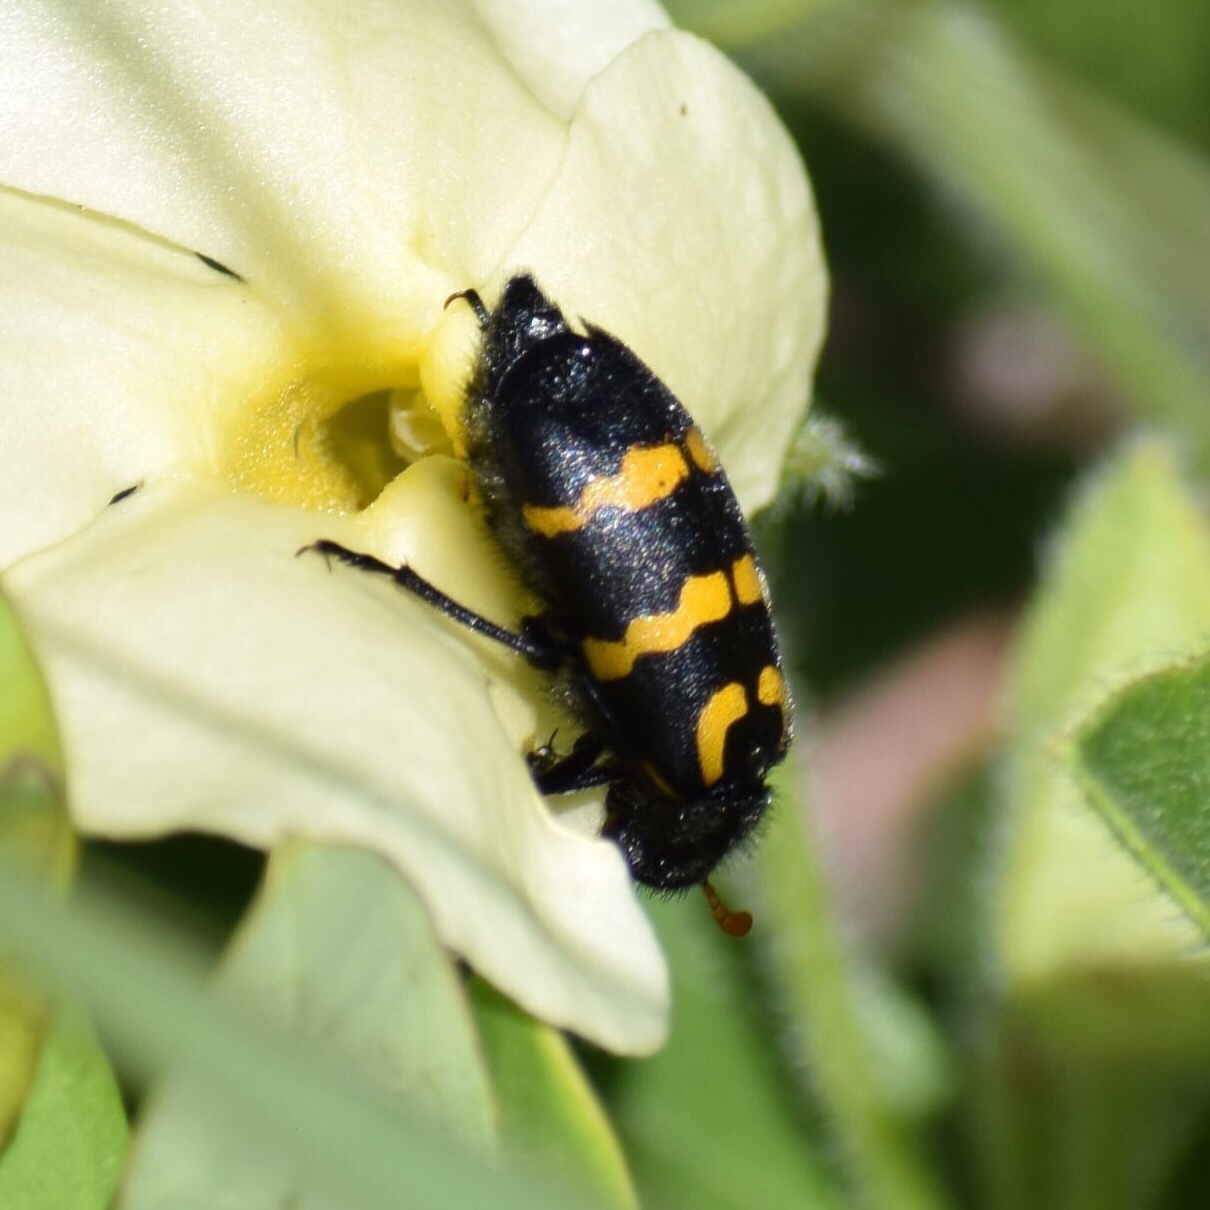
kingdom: Animalia
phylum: Arthropoda
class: Insecta
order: Coleoptera
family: Meloidae
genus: Meloe
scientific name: Meloe lunata
